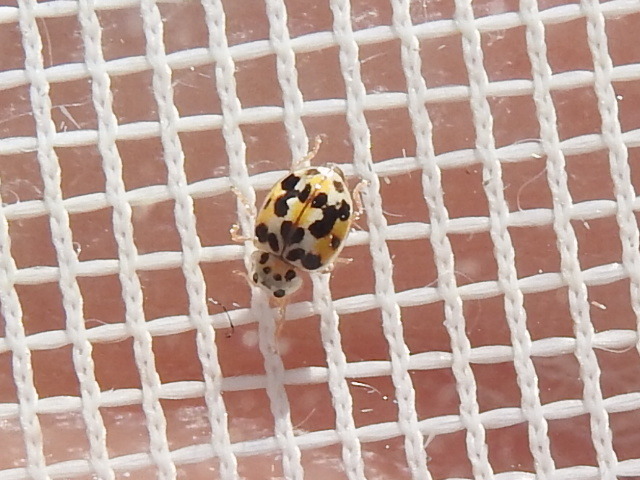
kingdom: Animalia
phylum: Arthropoda
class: Insecta
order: Coleoptera
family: Coccinellidae
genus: Psyllobora
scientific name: Psyllobora vigintimaculata
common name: Ladybird beetle
